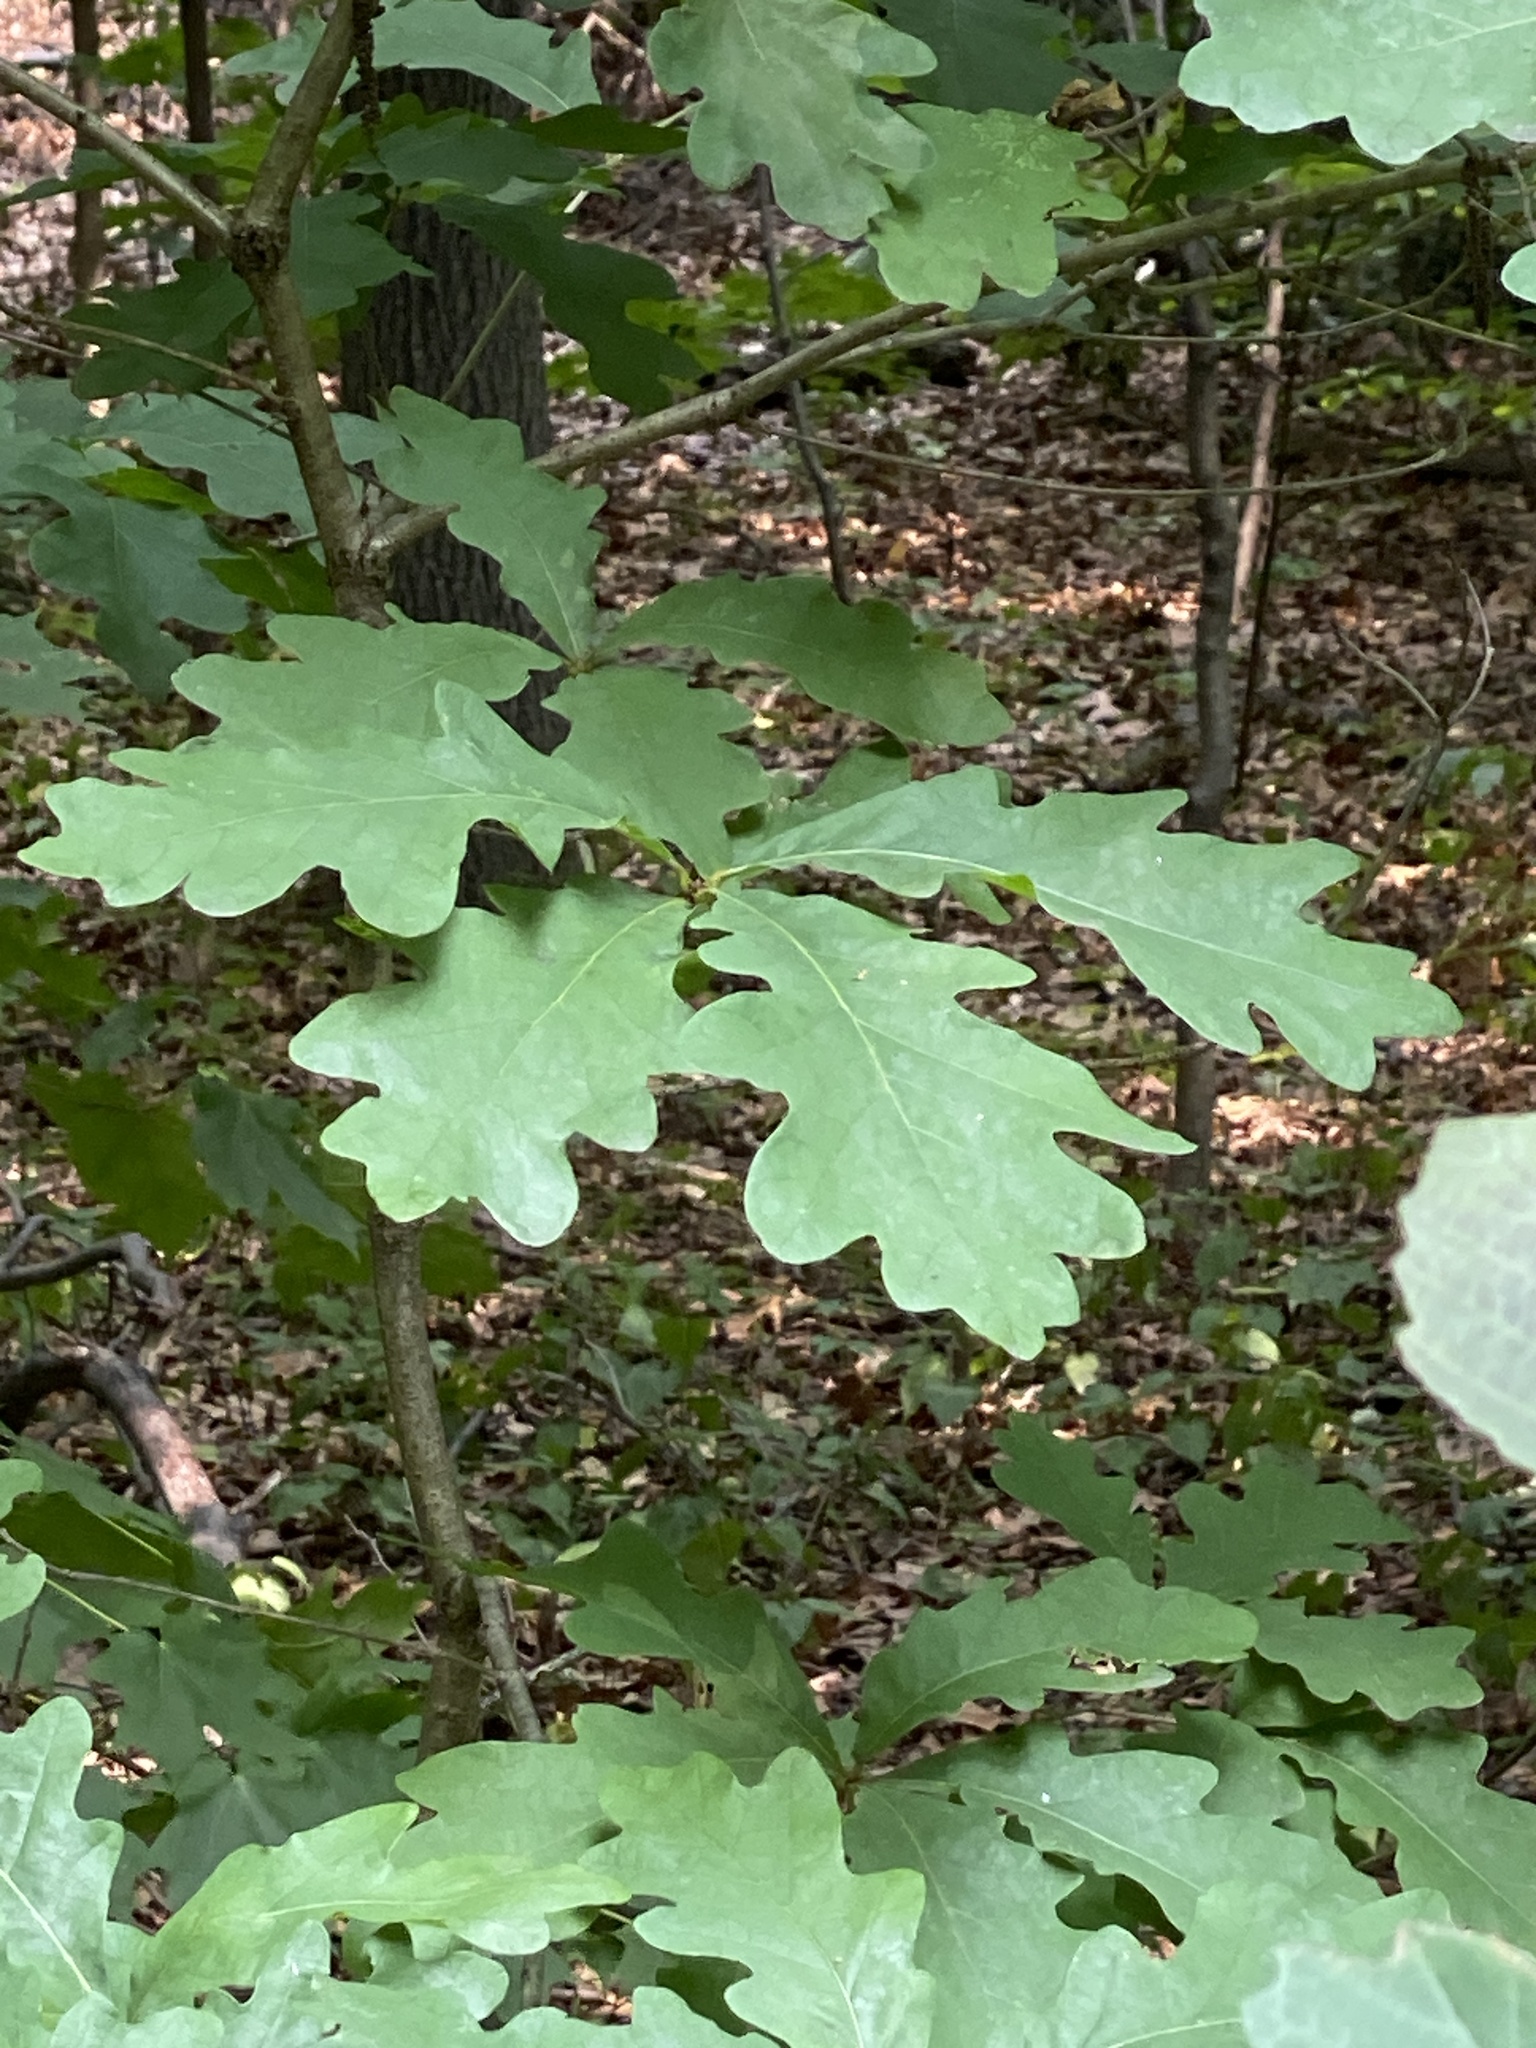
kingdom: Plantae
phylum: Tracheophyta
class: Magnoliopsida
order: Fagales
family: Fagaceae
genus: Quercus
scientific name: Quercus alba
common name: White oak
